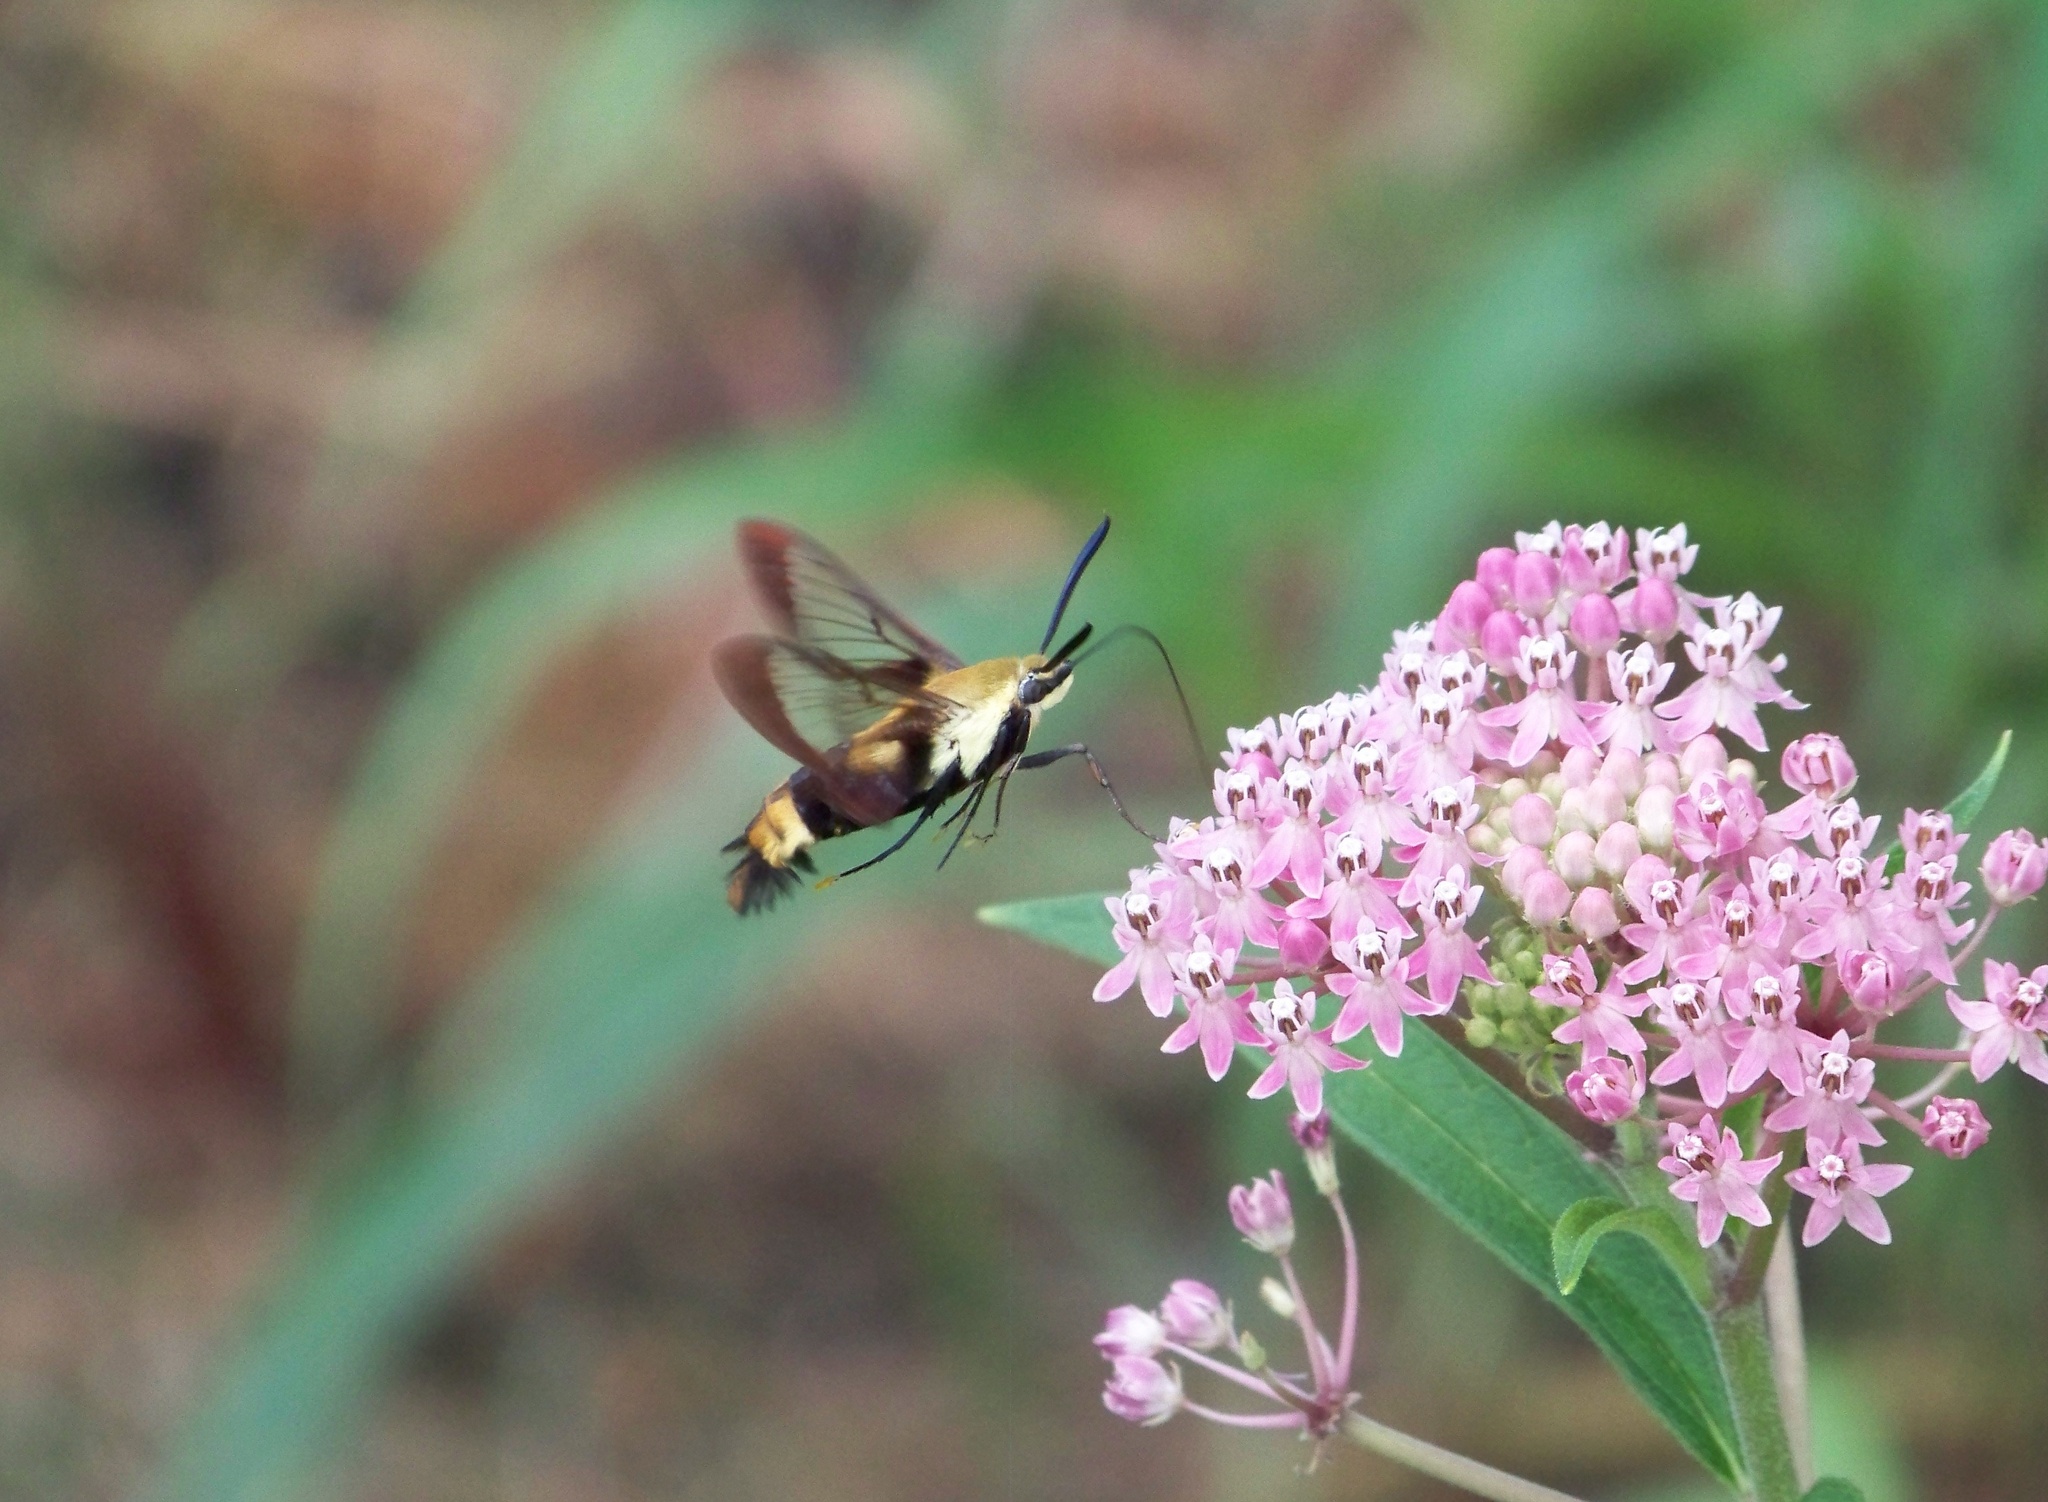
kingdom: Animalia
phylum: Arthropoda
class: Insecta
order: Lepidoptera
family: Sphingidae
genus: Hemaris
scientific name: Hemaris diffinis
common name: Bumblebee moth
